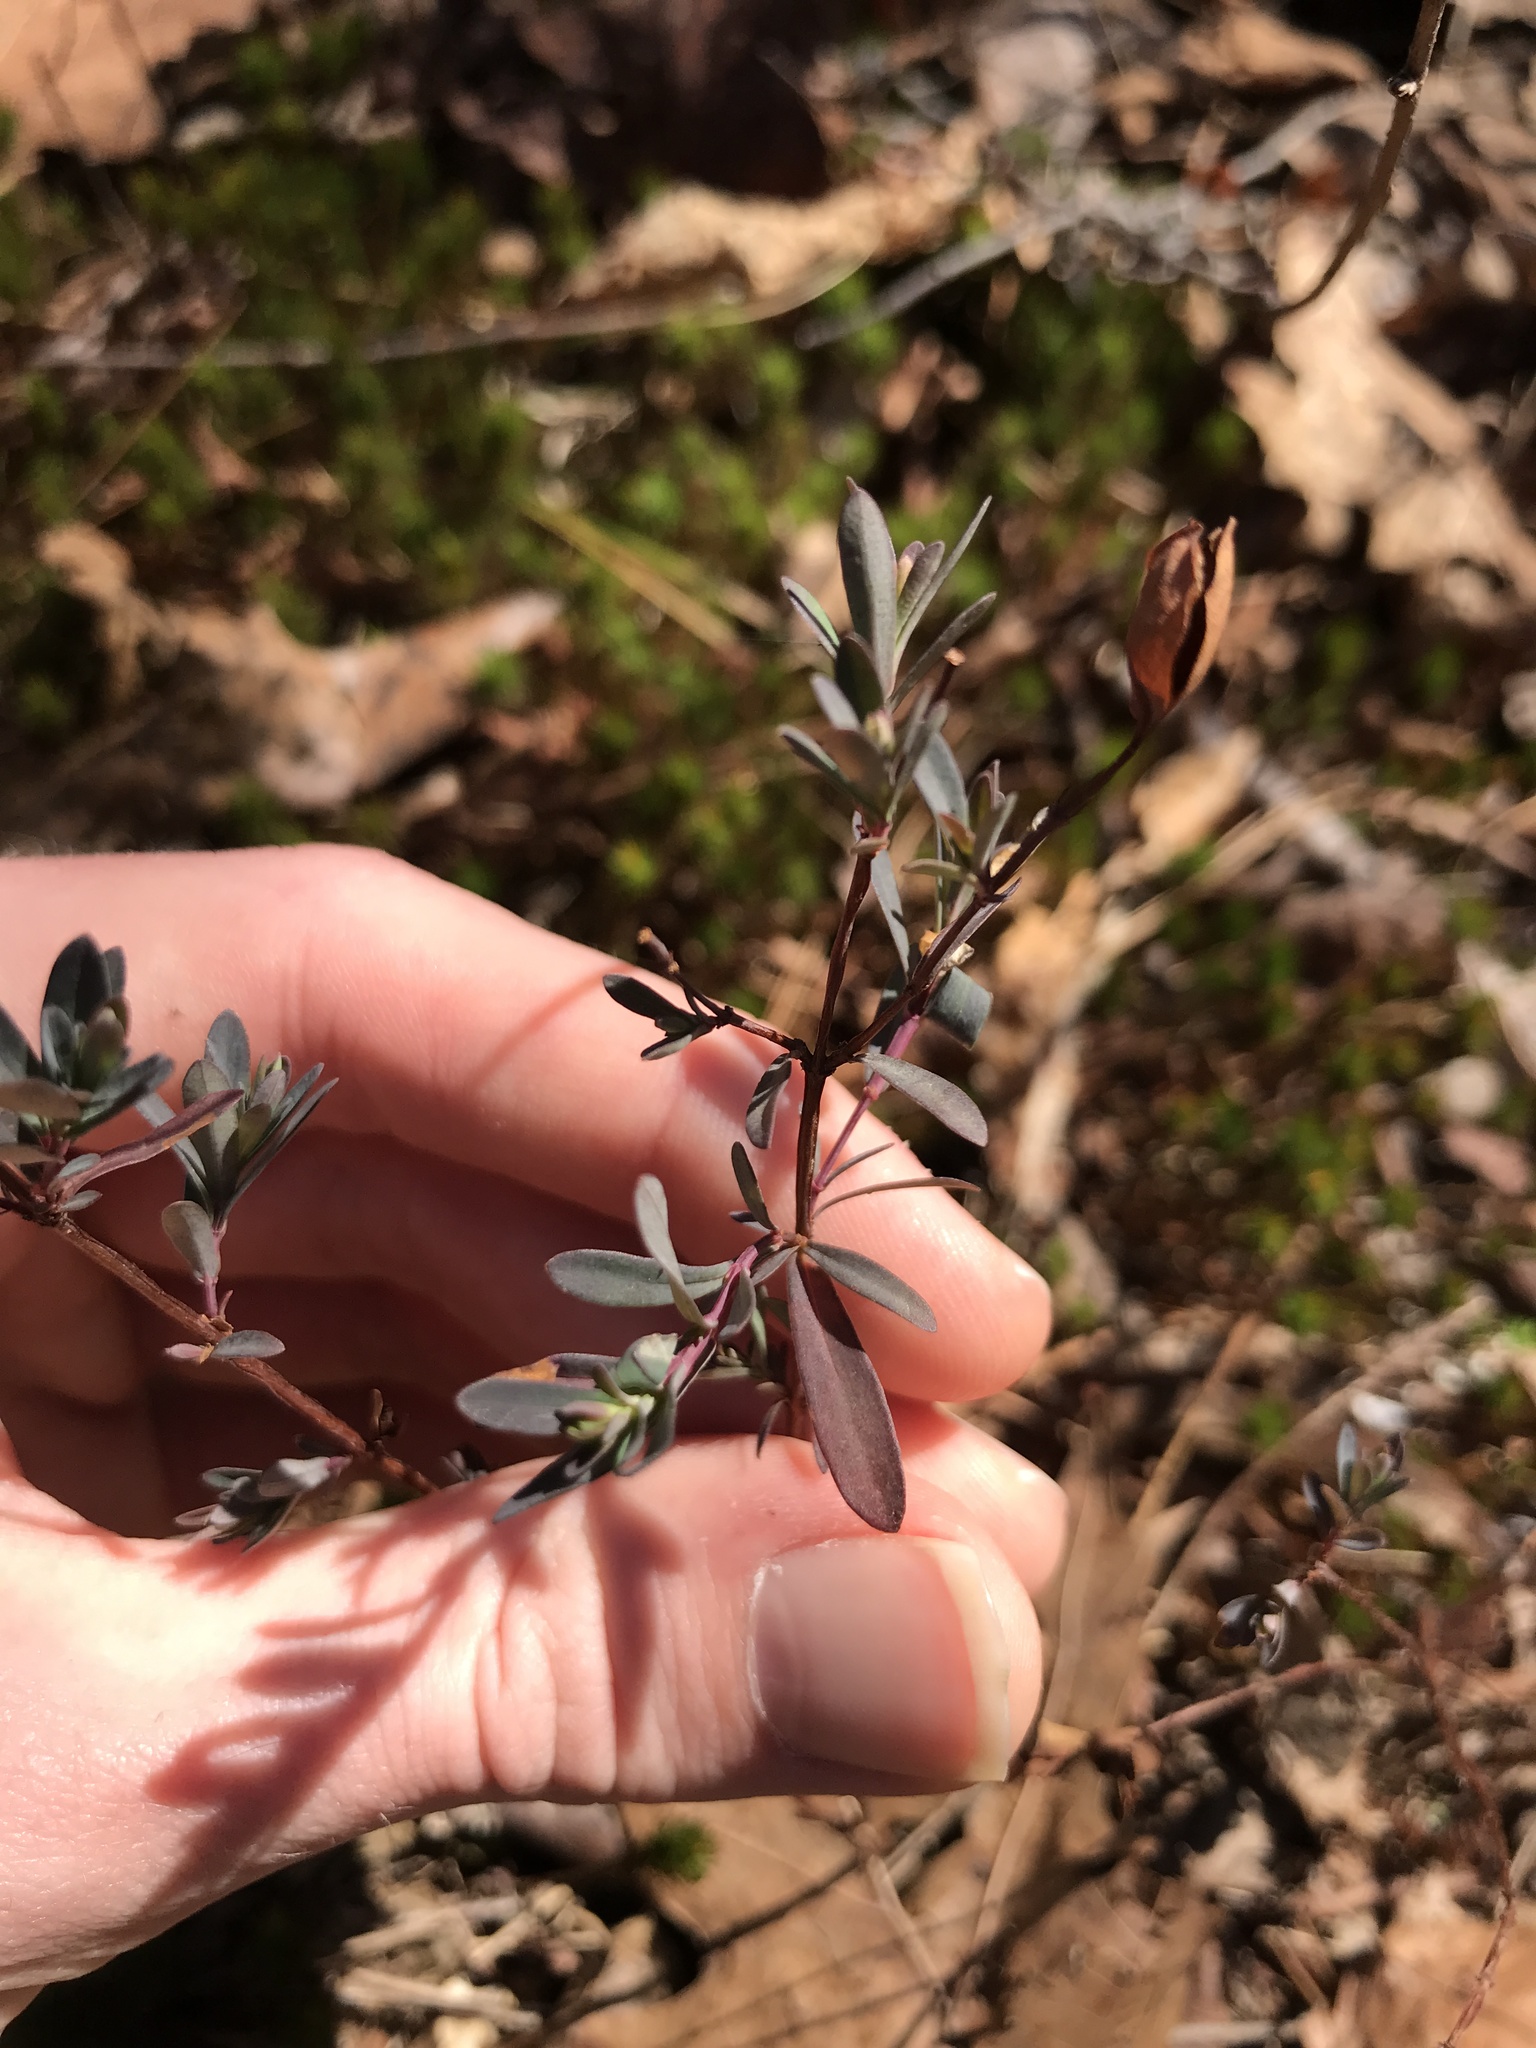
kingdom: Plantae
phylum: Tracheophyta
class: Magnoliopsida
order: Malpighiales
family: Hypericaceae
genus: Hypericum
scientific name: Hypericum hypericoides
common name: St. andrew's cross
